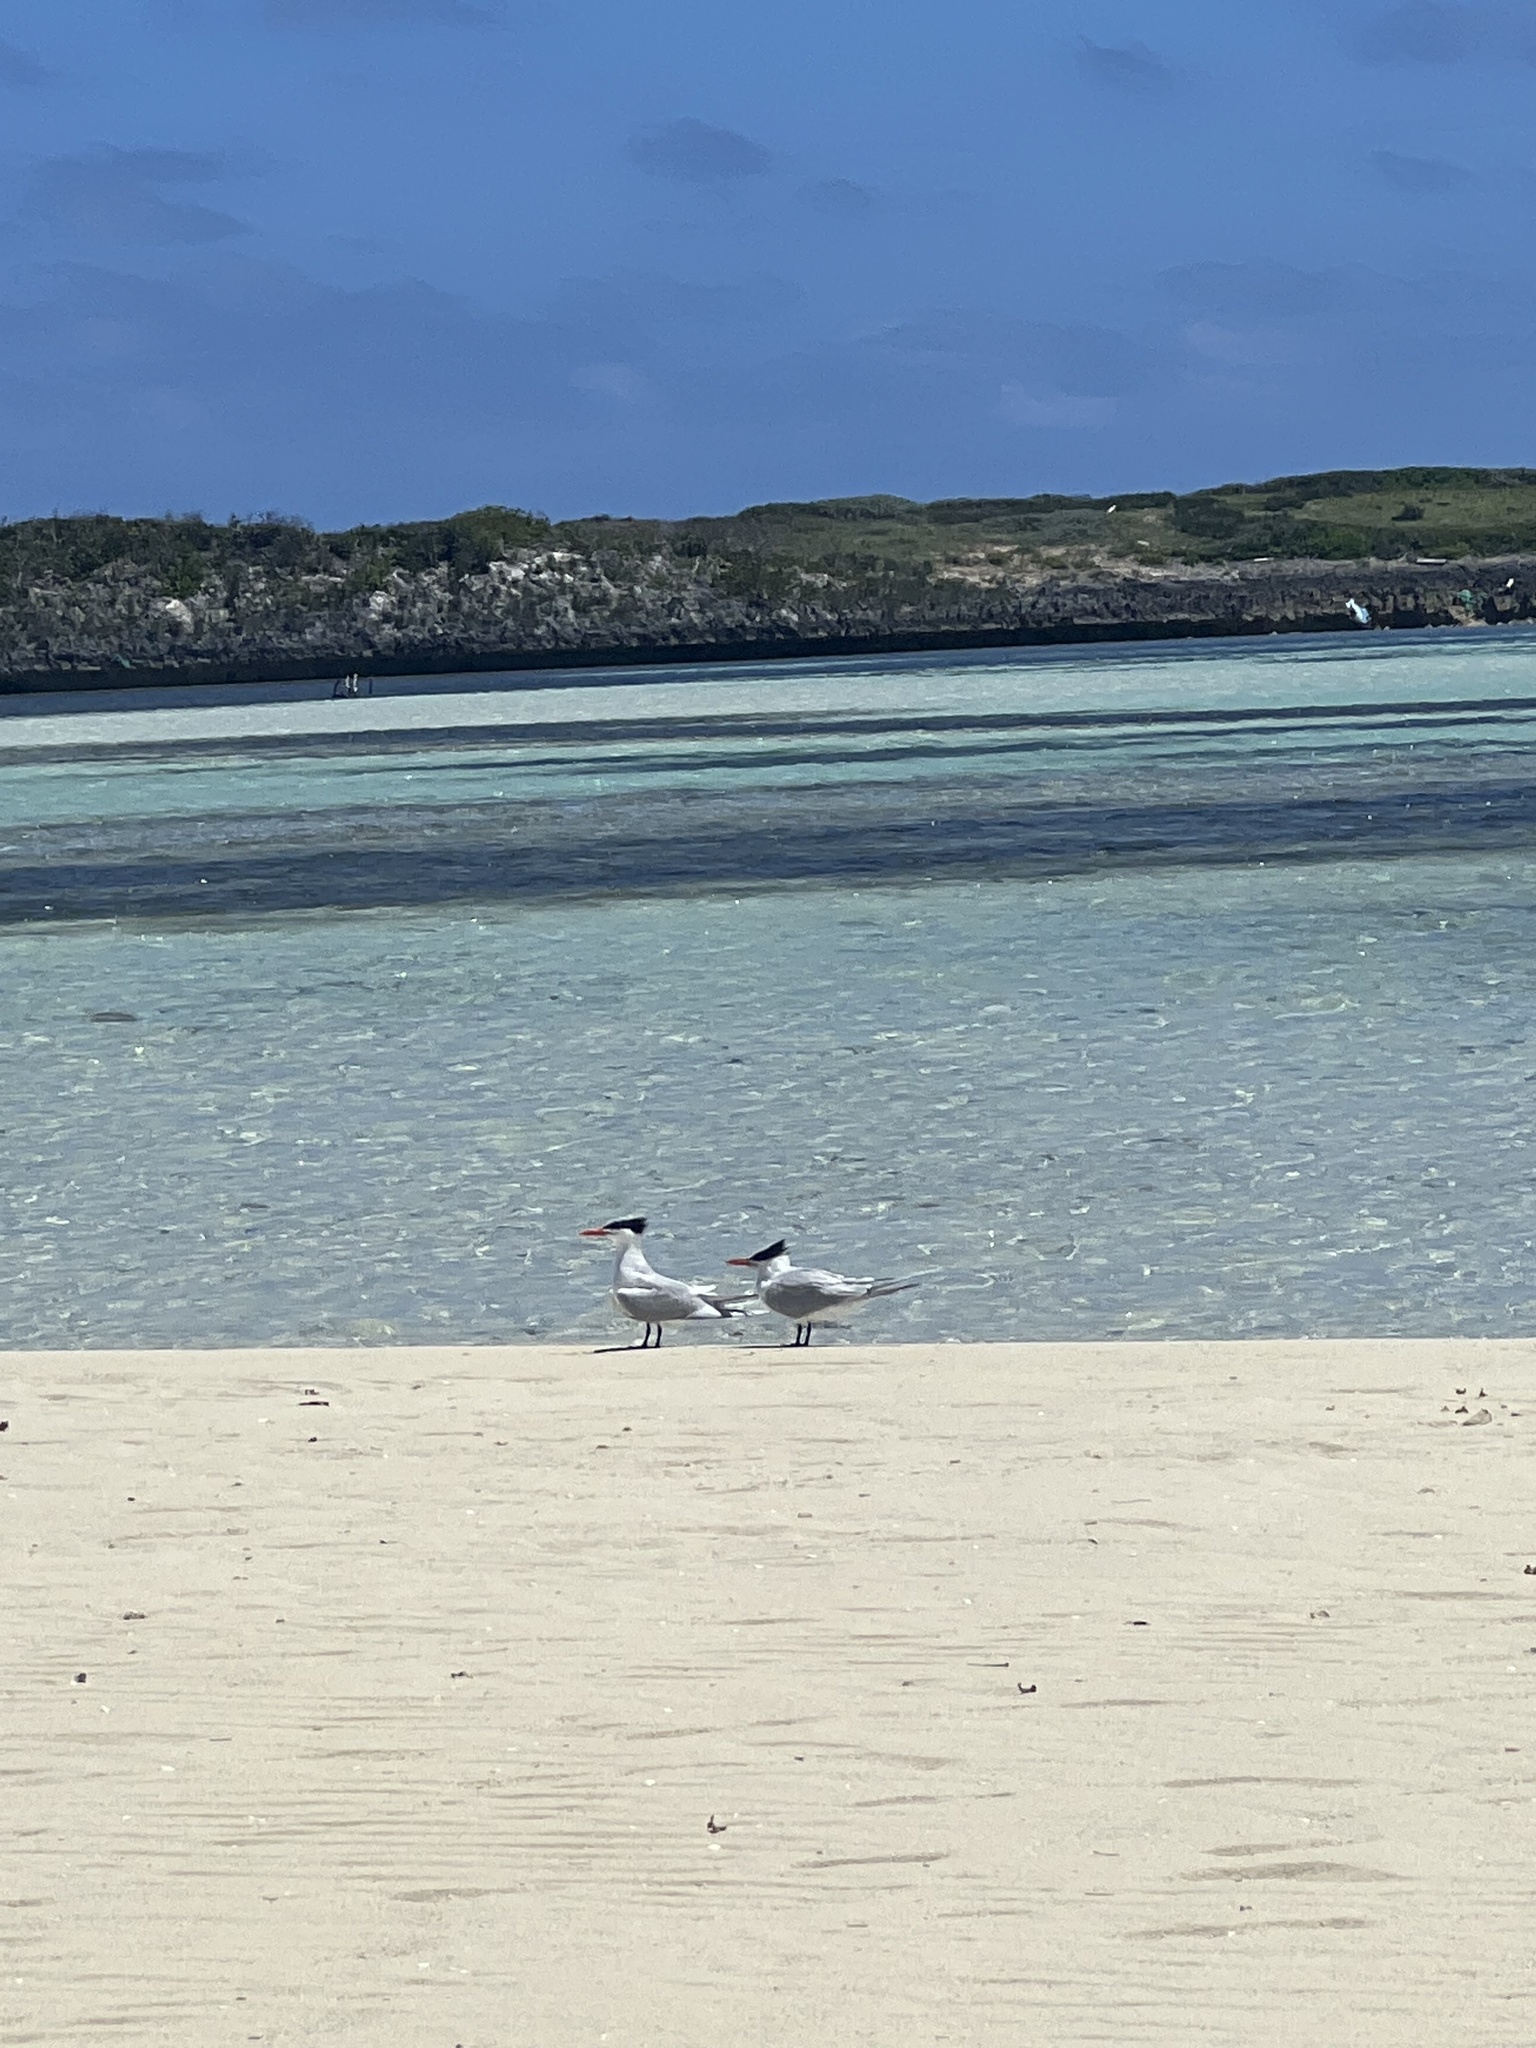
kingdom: Animalia
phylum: Chordata
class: Aves
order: Charadriiformes
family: Laridae
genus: Thalasseus
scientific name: Thalasseus maximus
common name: Royal tern
